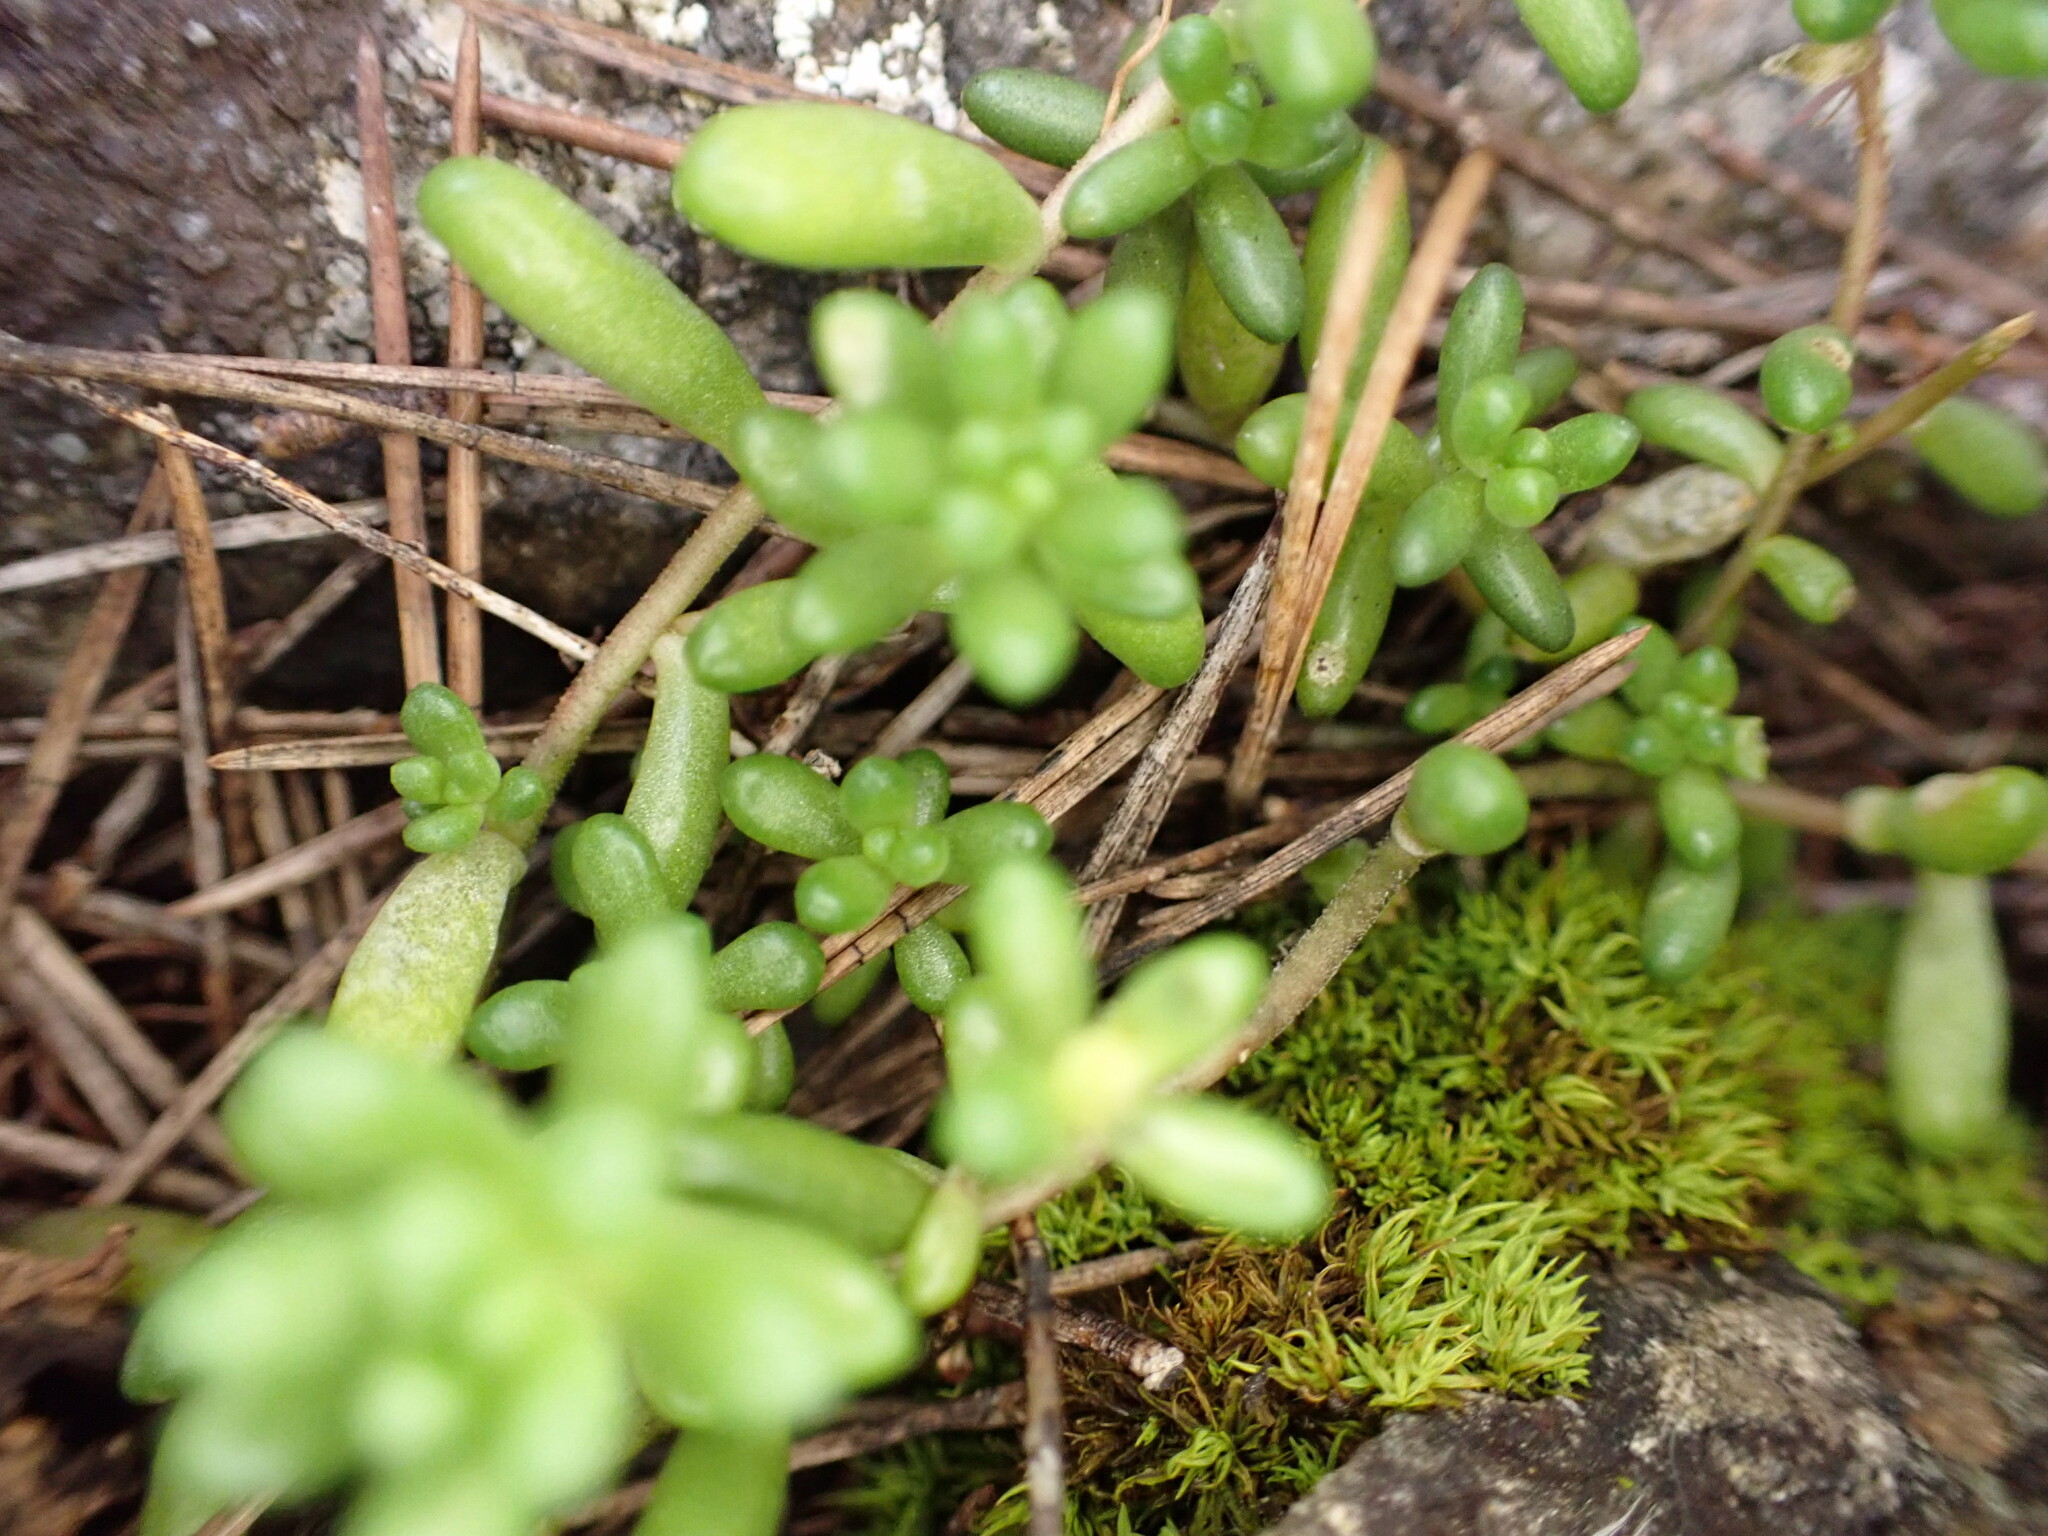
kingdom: Plantae
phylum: Tracheophyta
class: Magnoliopsida
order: Saxifragales
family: Crassulaceae
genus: Sedum
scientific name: Sedum album
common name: White stonecrop
